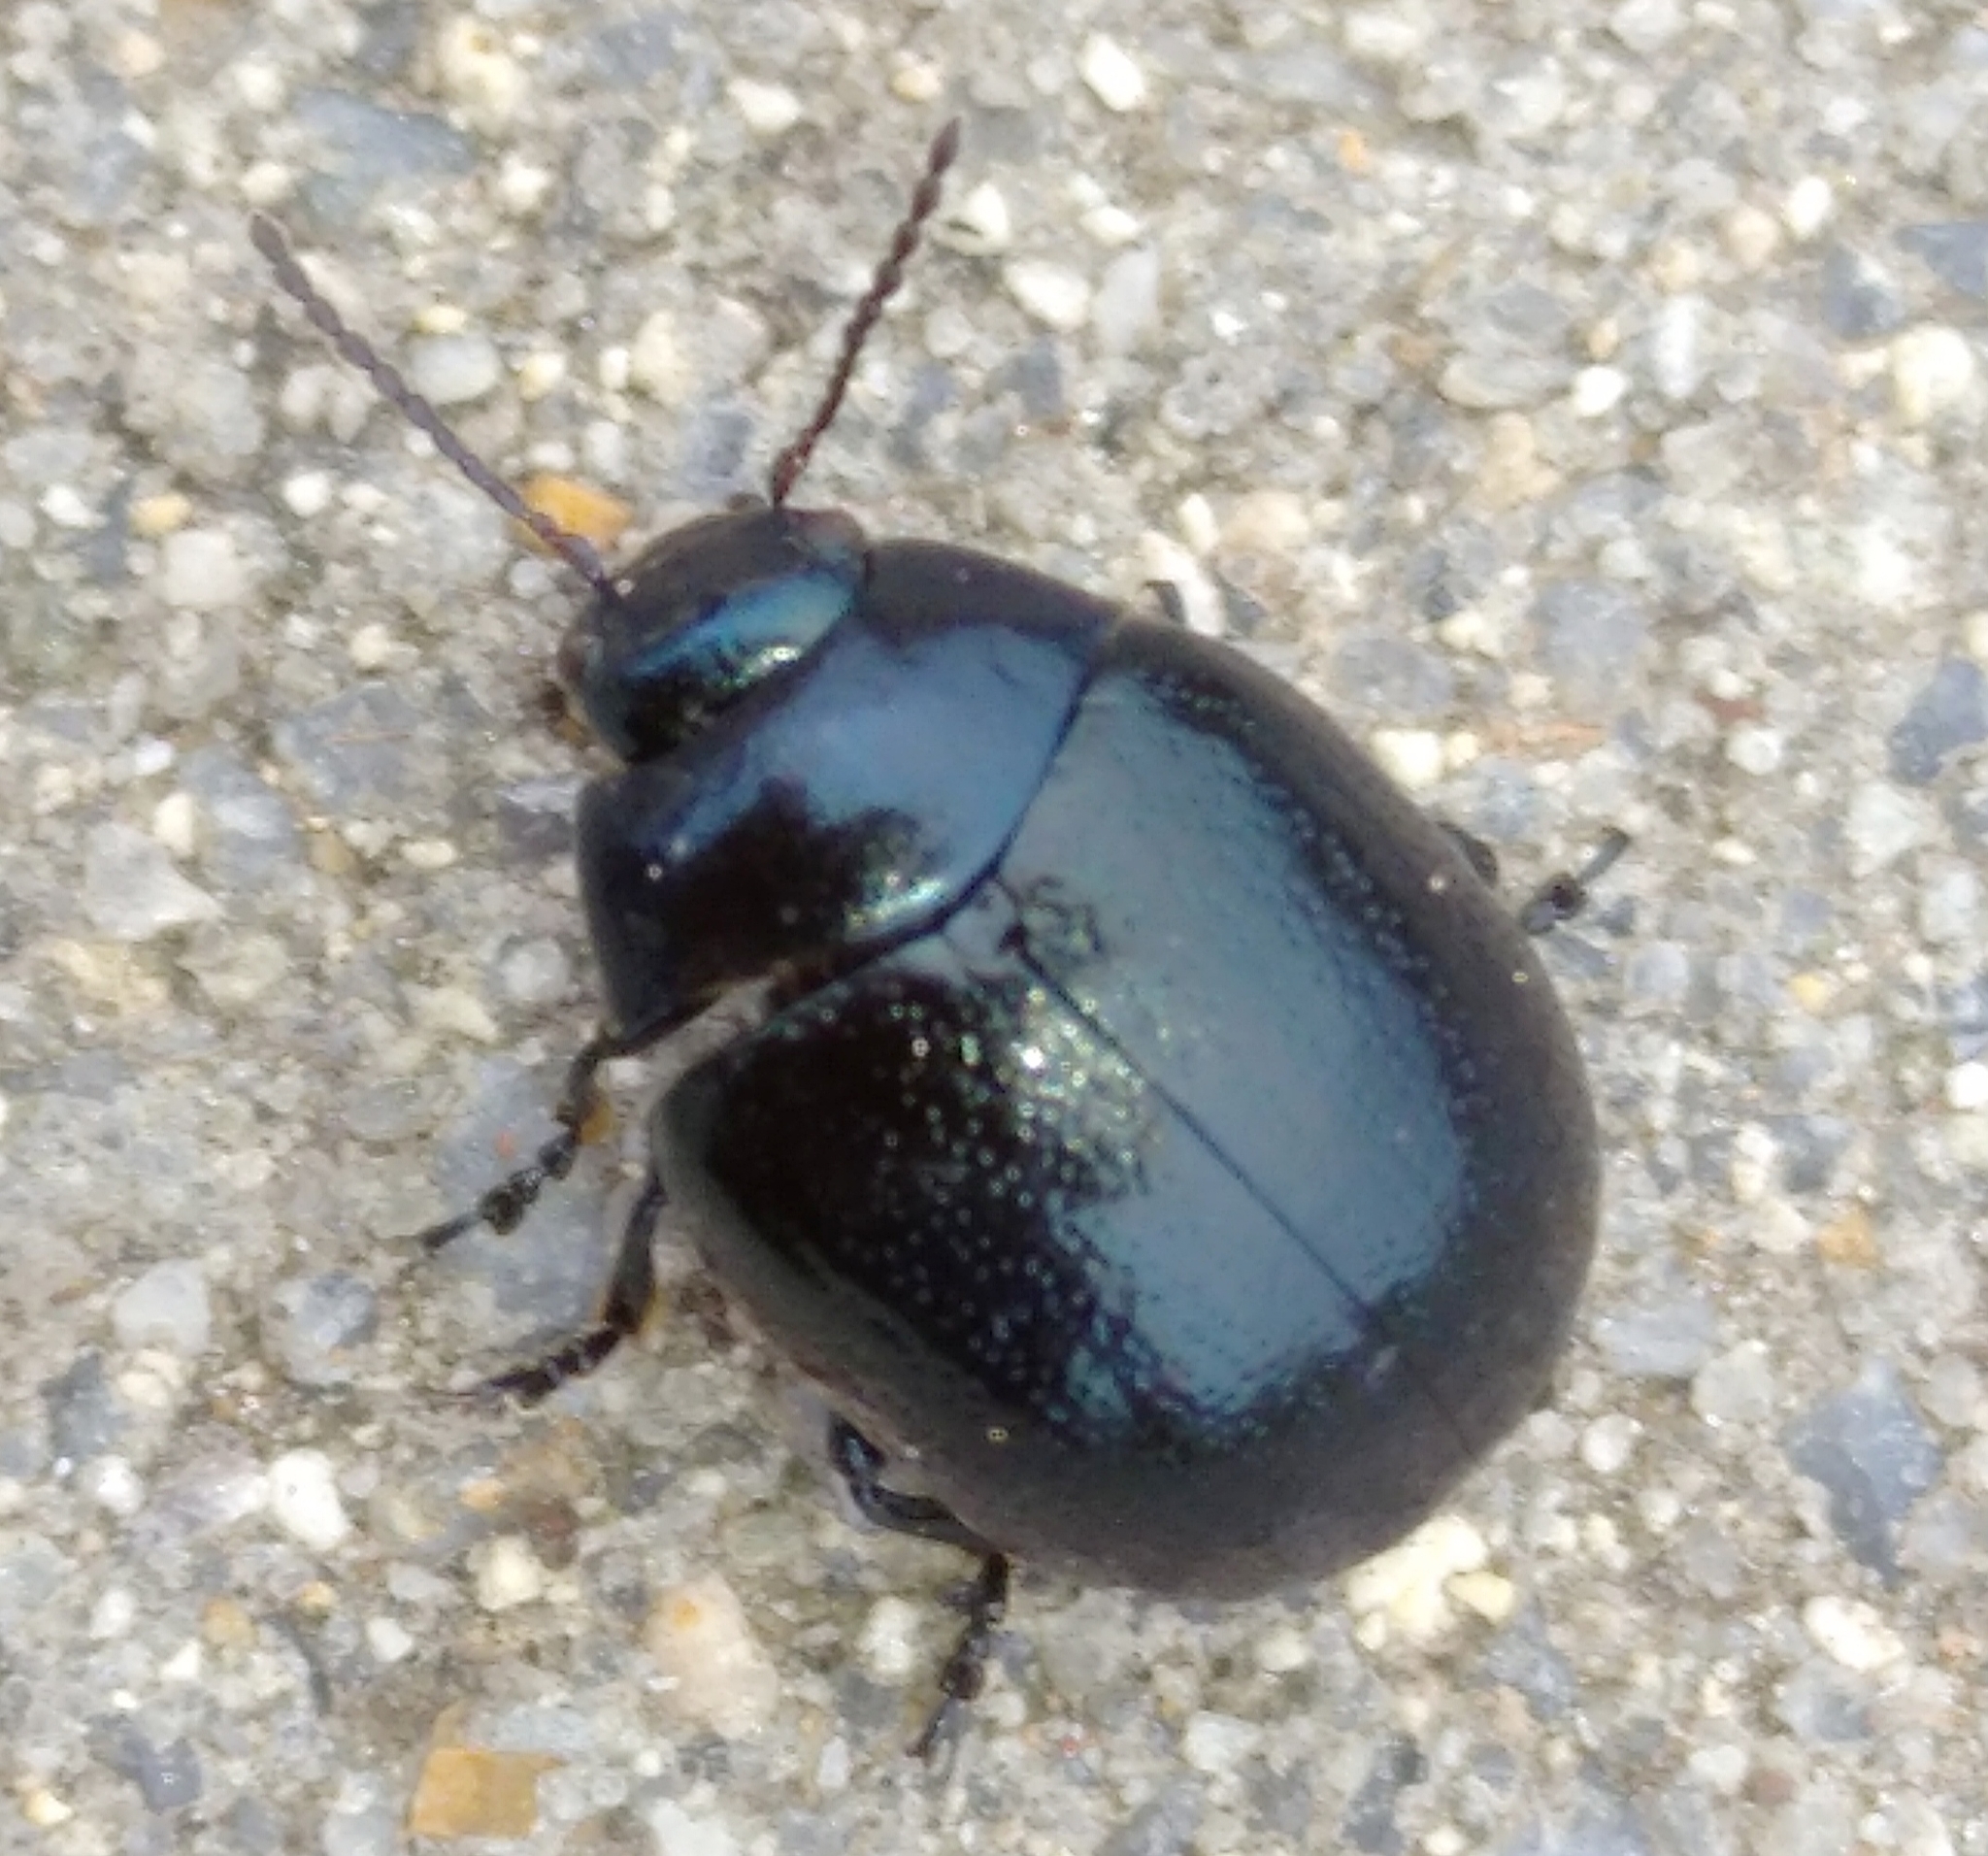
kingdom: Animalia
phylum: Arthropoda
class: Insecta
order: Coleoptera
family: Chrysomelidae
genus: Chrysolina
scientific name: Chrysolina haemoptera
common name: Plantain leaf beetle
